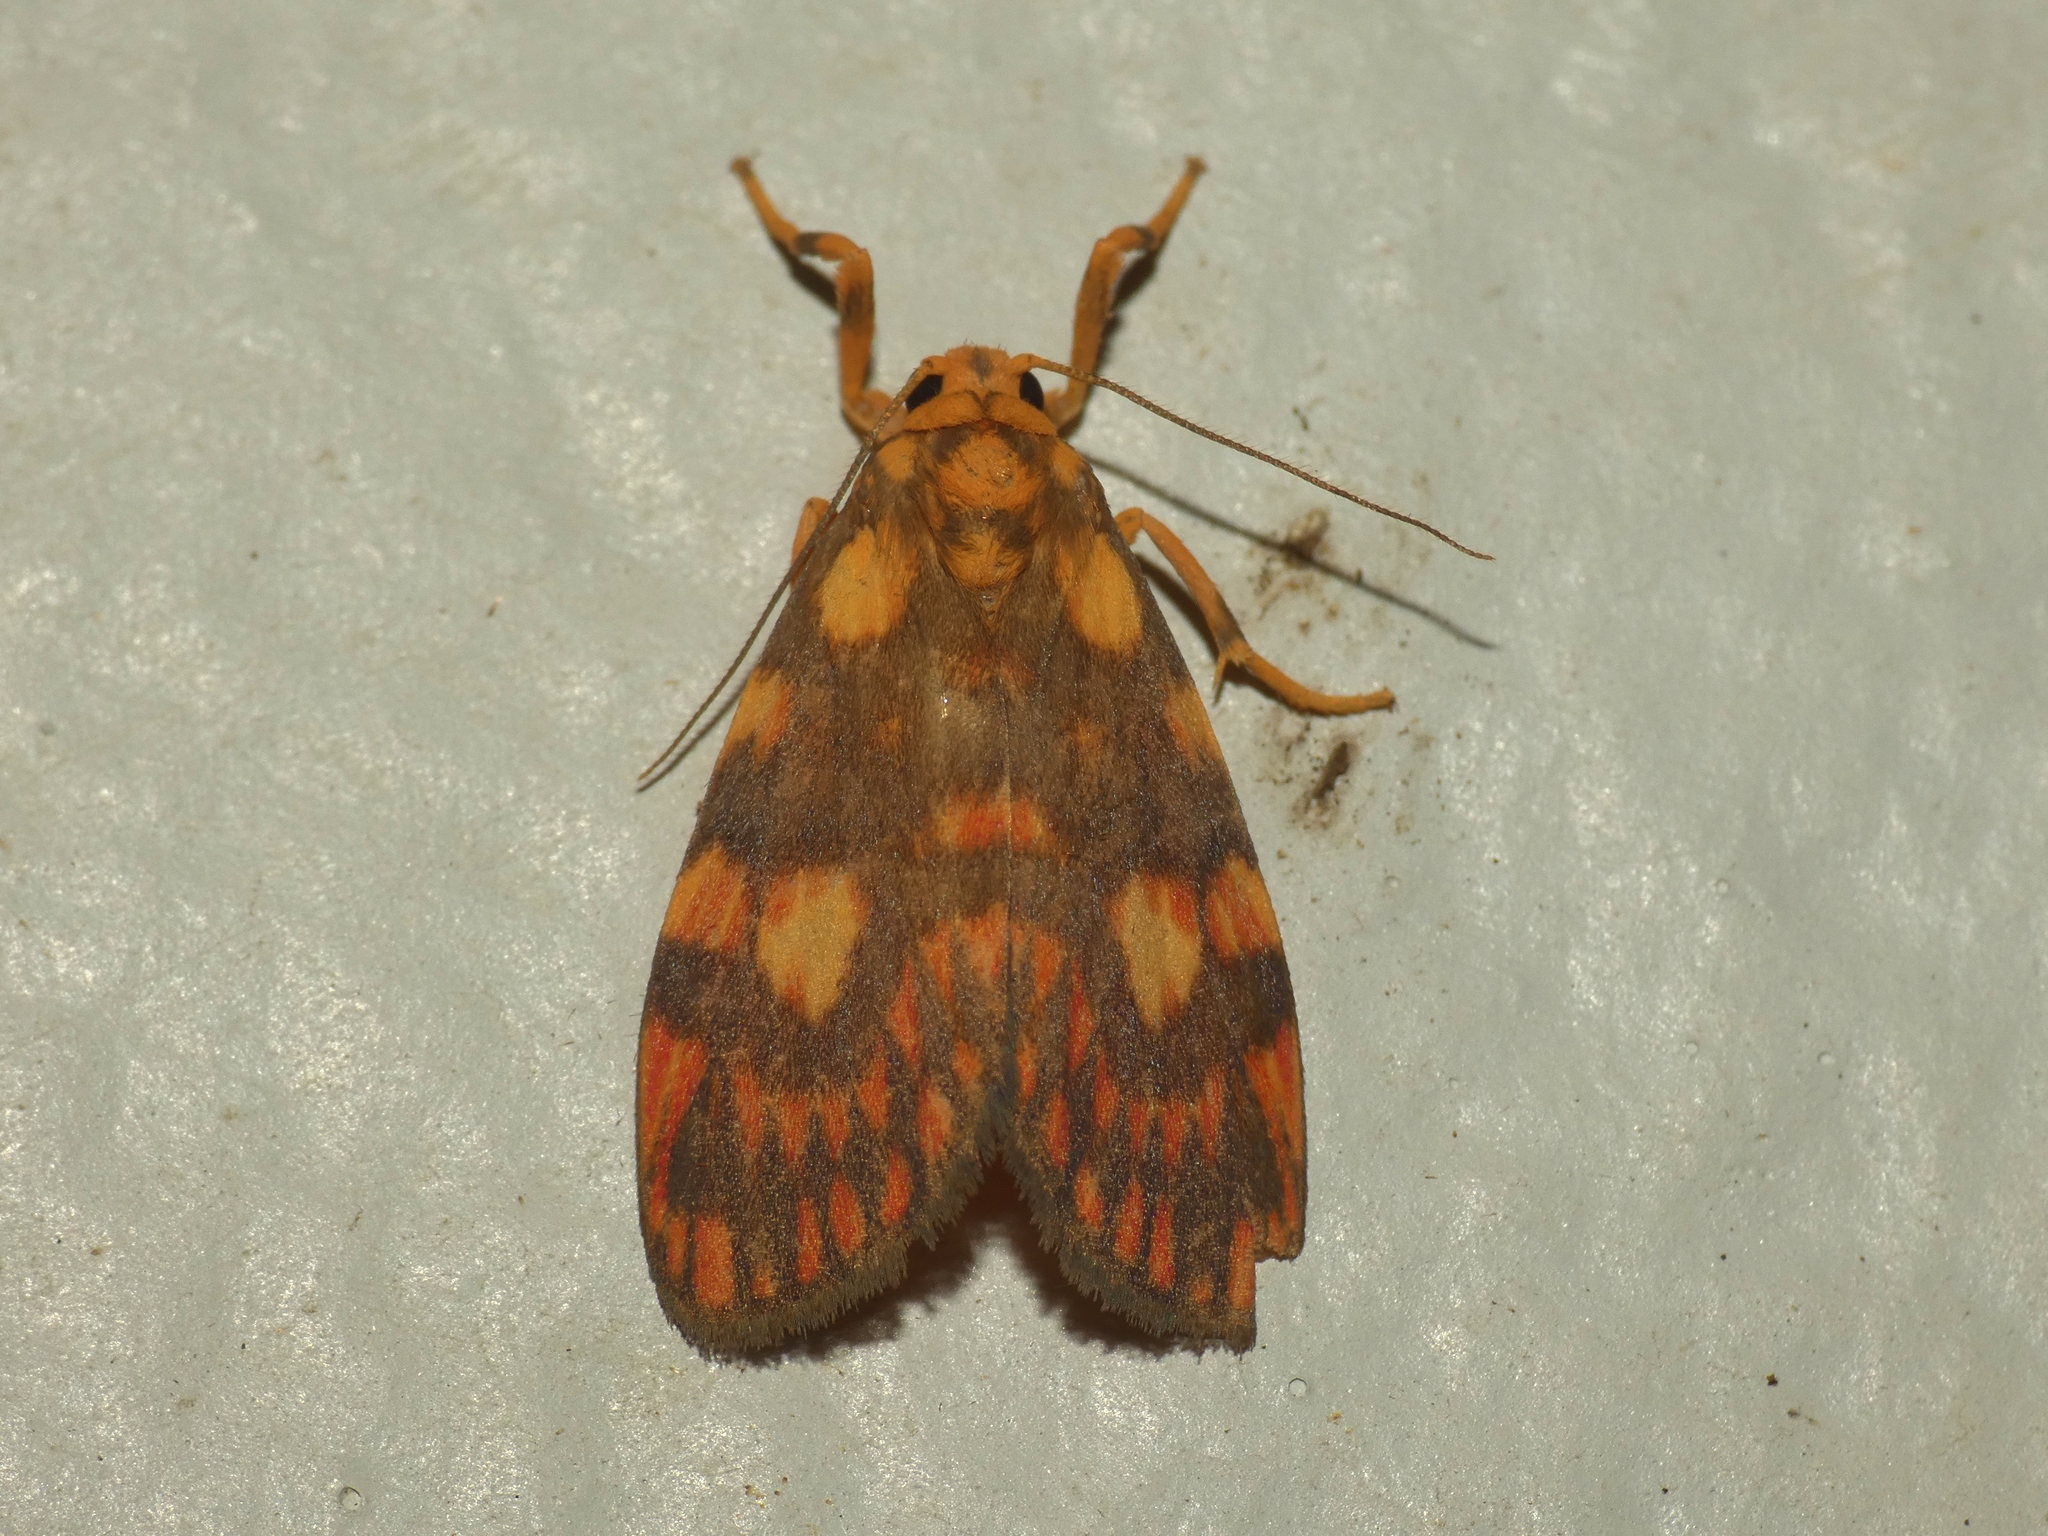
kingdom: Animalia
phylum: Arthropoda
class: Insecta
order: Lepidoptera
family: Erebidae
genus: Cyme
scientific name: Cyme reticulata
